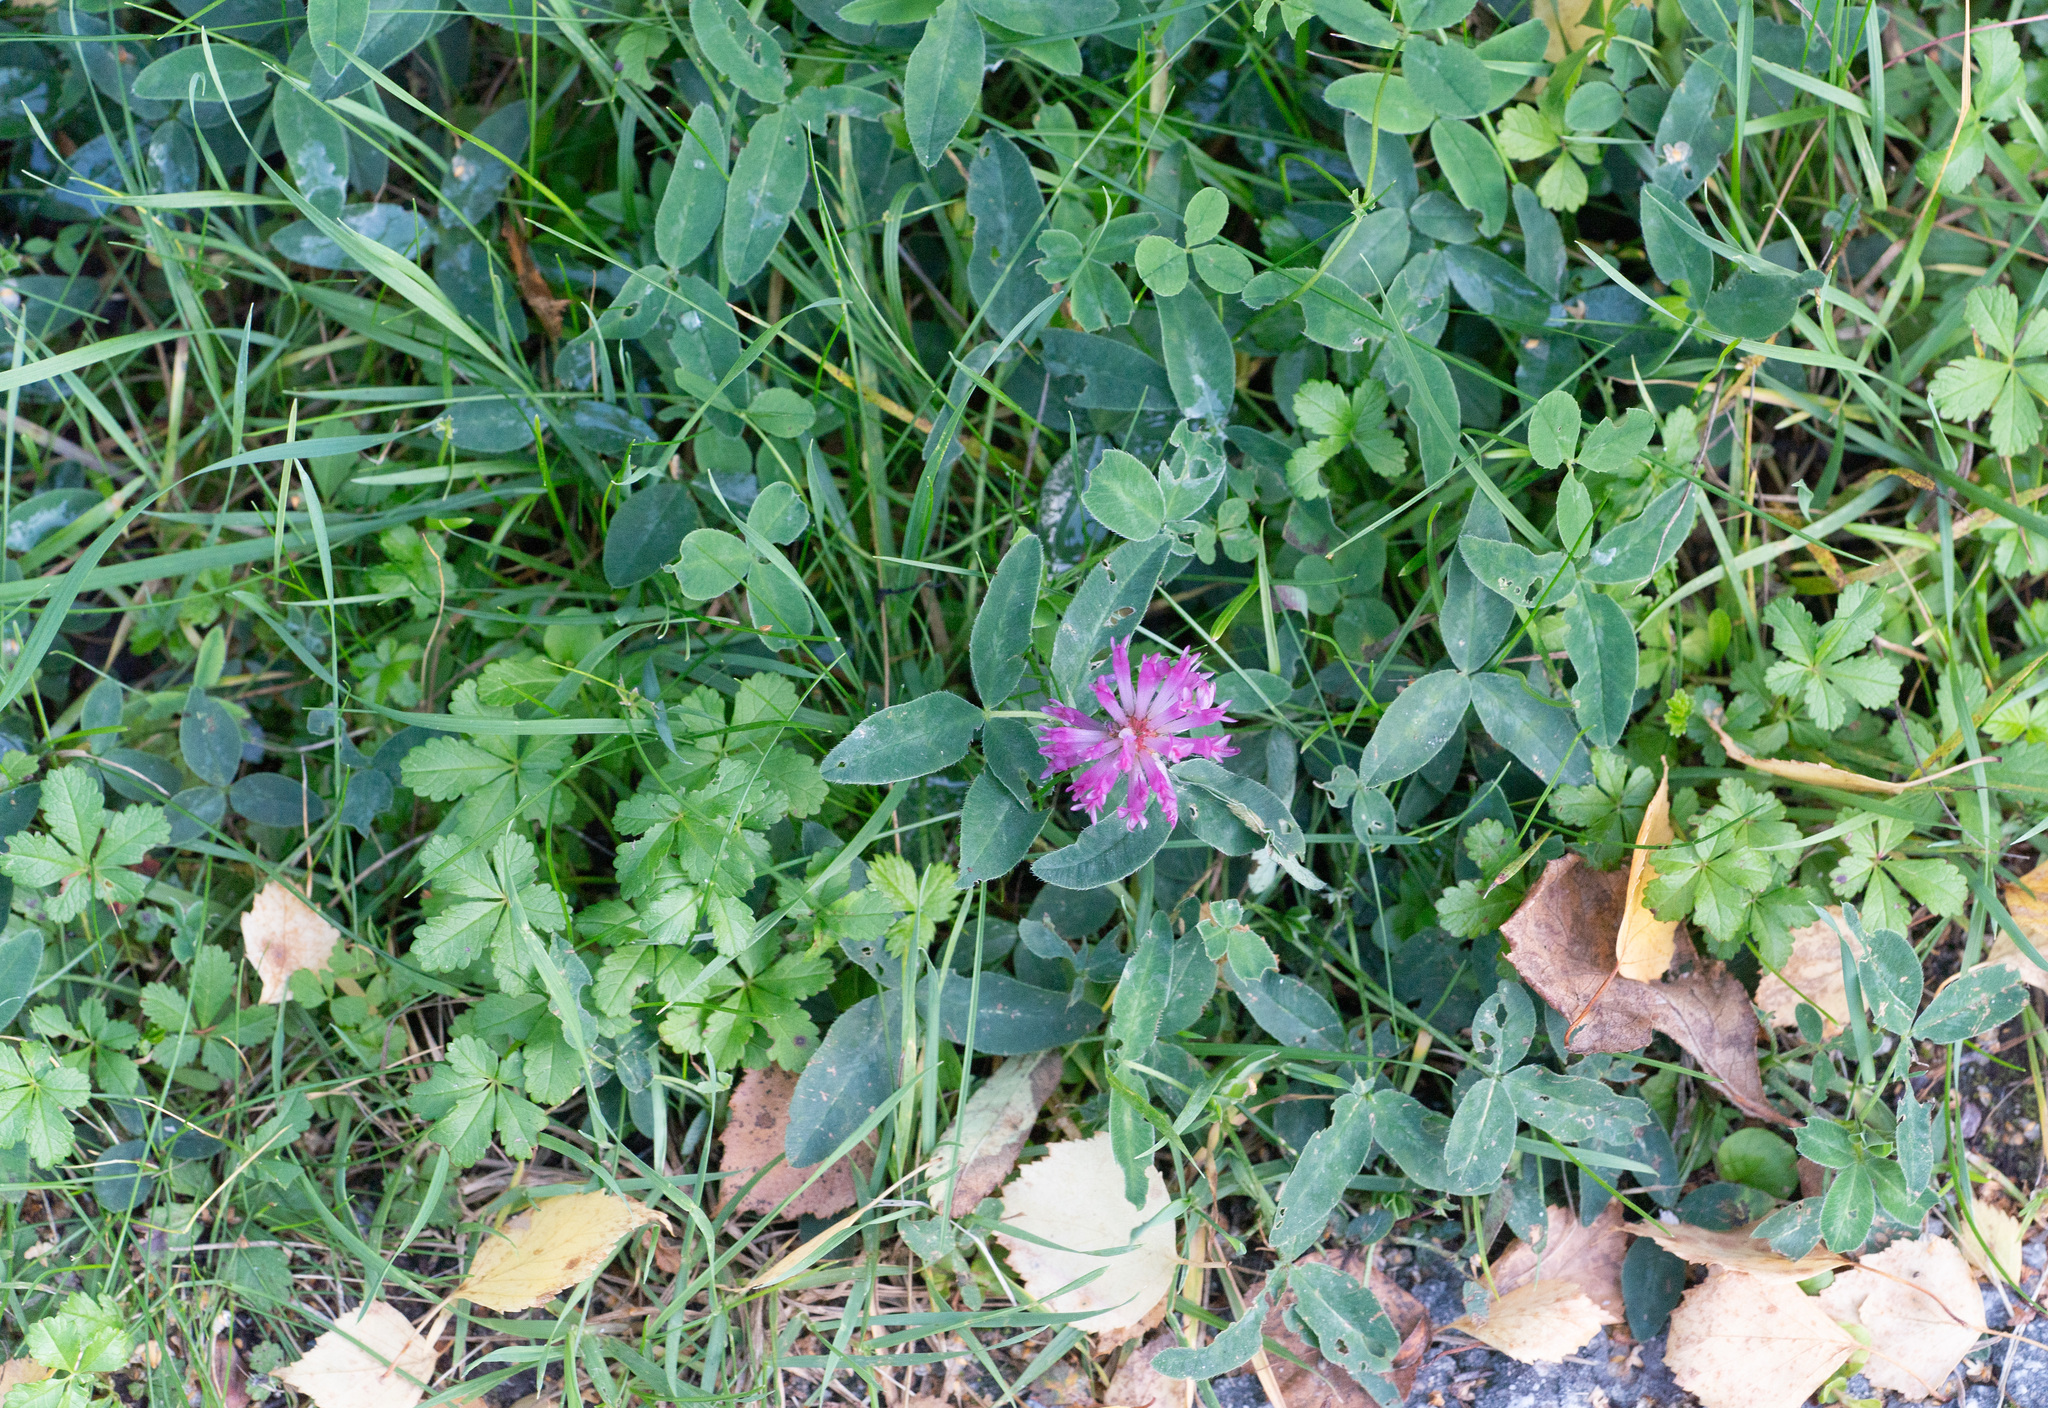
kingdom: Plantae
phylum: Tracheophyta
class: Magnoliopsida
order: Fabales
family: Fabaceae
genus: Trifolium
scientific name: Trifolium medium
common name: Zigzag clover
